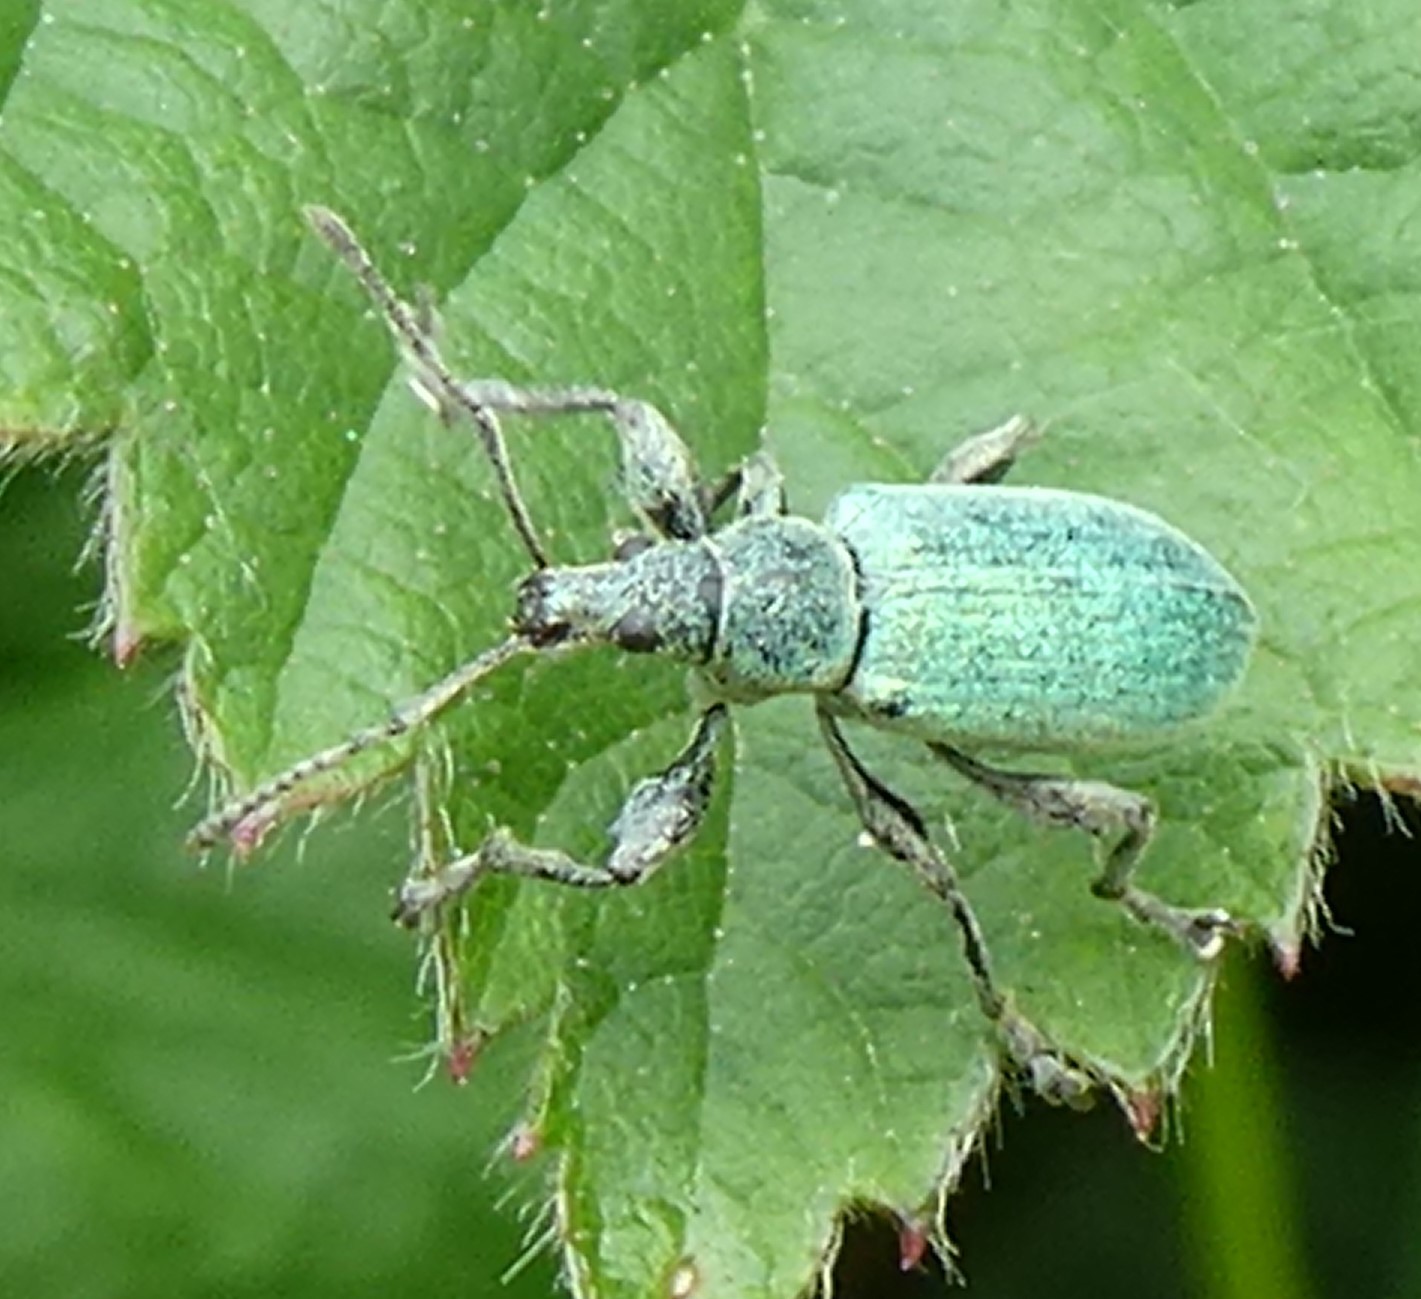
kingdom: Animalia
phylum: Arthropoda
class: Insecta
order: Coleoptera
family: Curculionidae
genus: Phyllobius
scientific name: Phyllobius pomaceus
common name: Green nettle weevil
